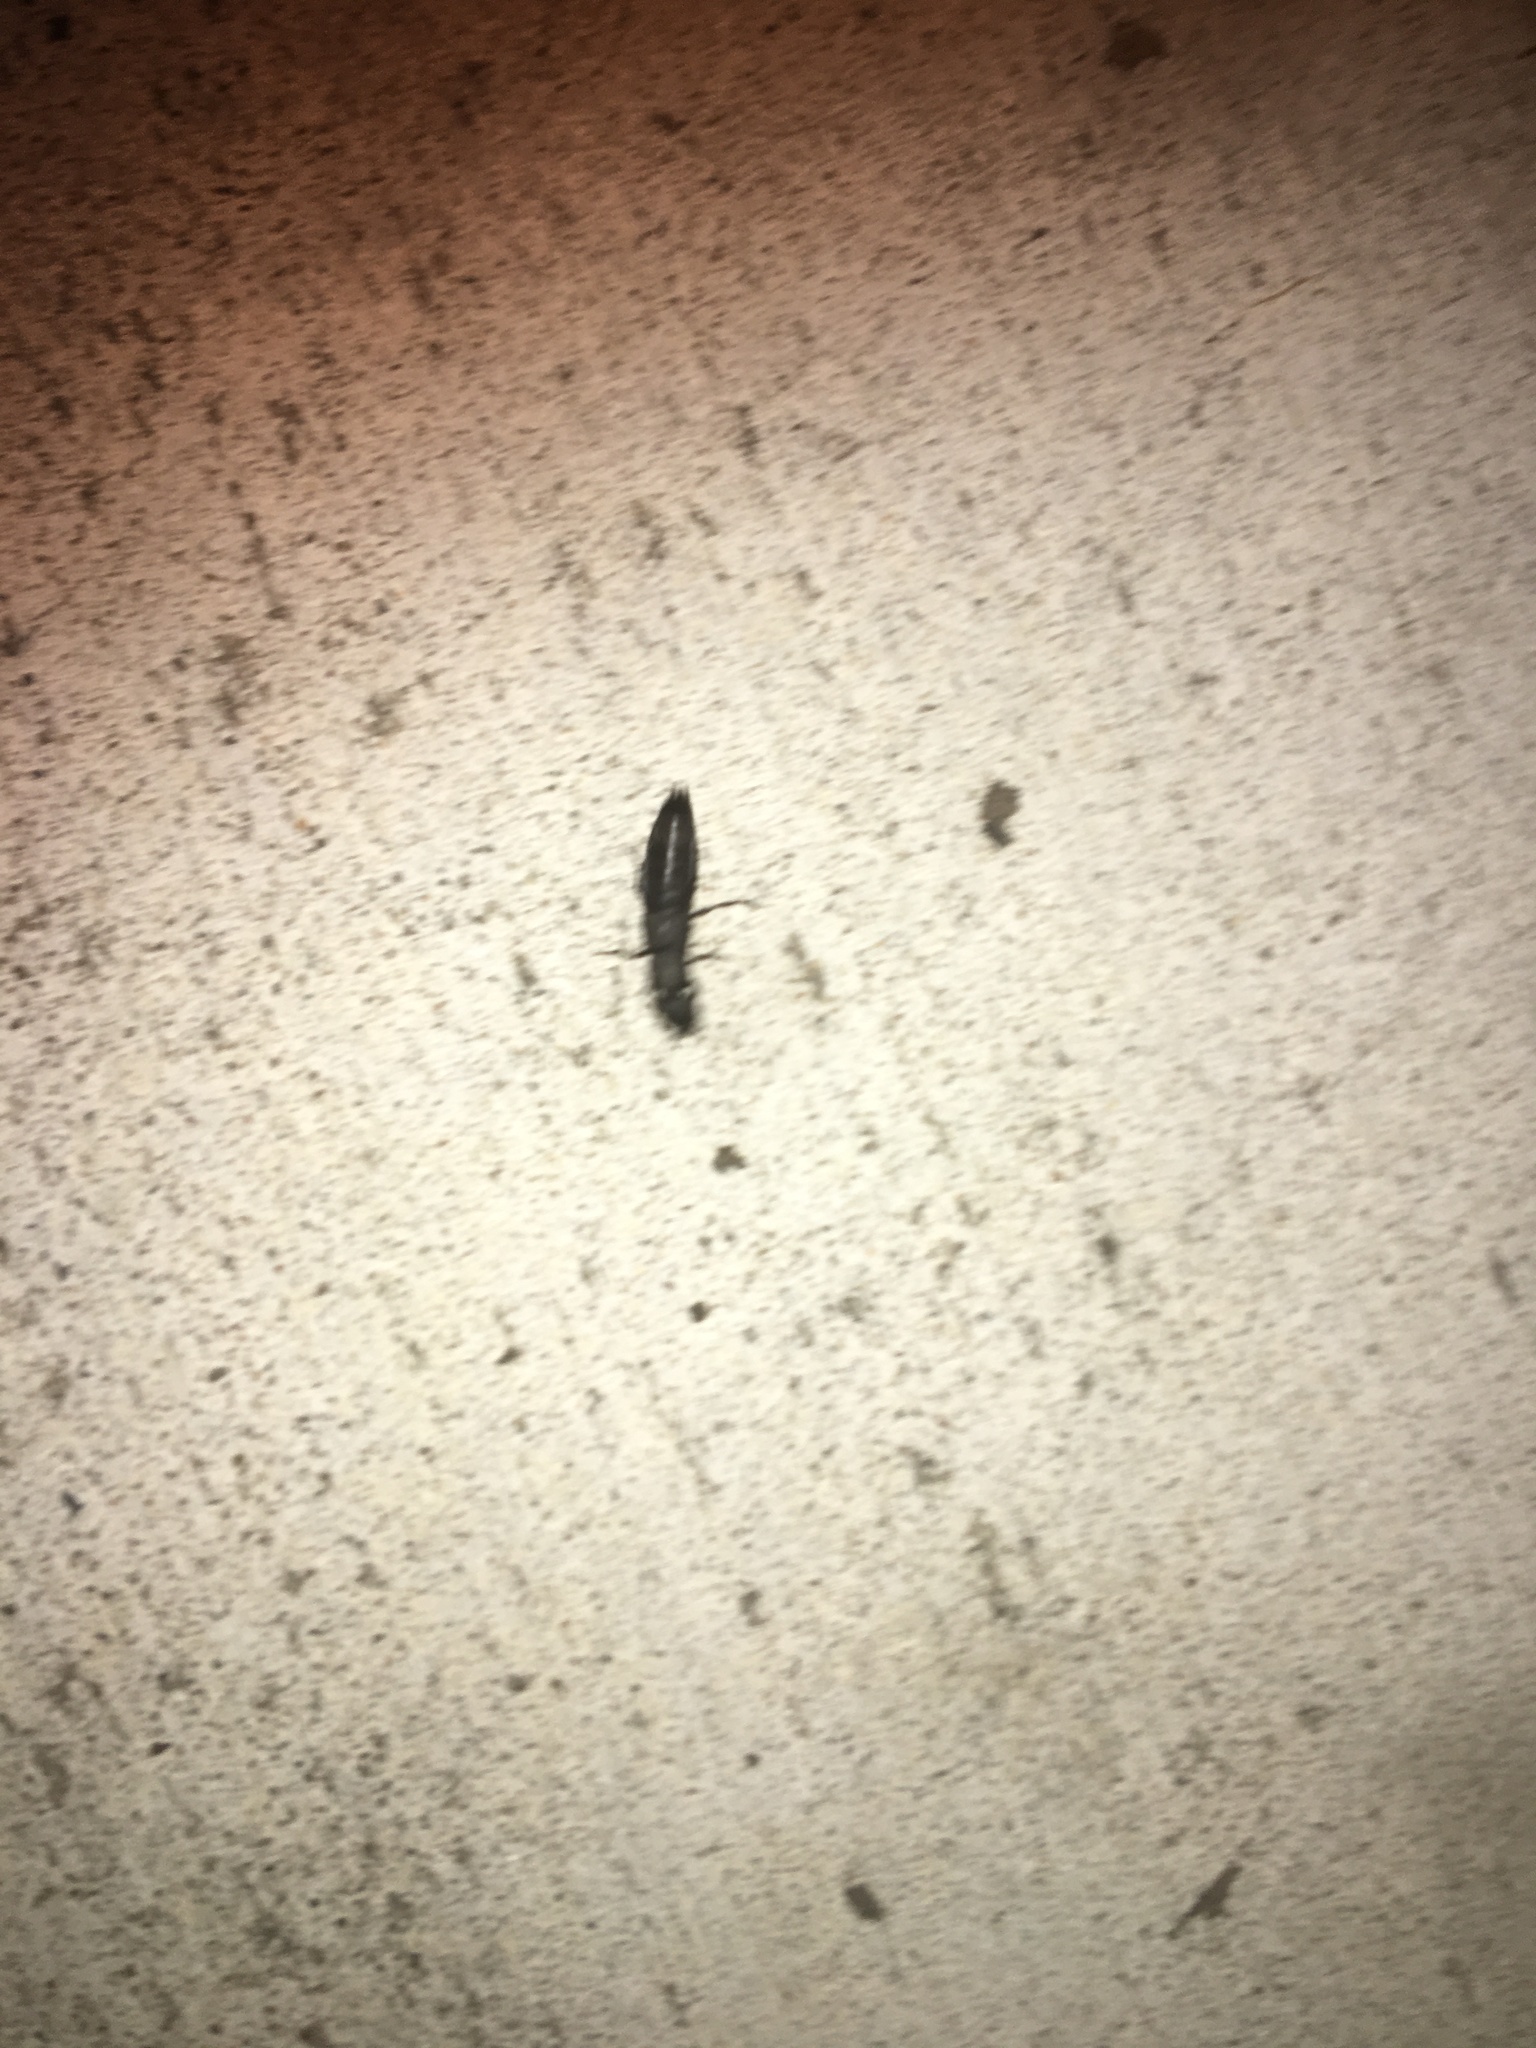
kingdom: Animalia
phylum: Arthropoda
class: Insecta
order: Coleoptera
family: Staphylinidae
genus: Ocypus
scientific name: Ocypus olens
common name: Devil's coach-horse
